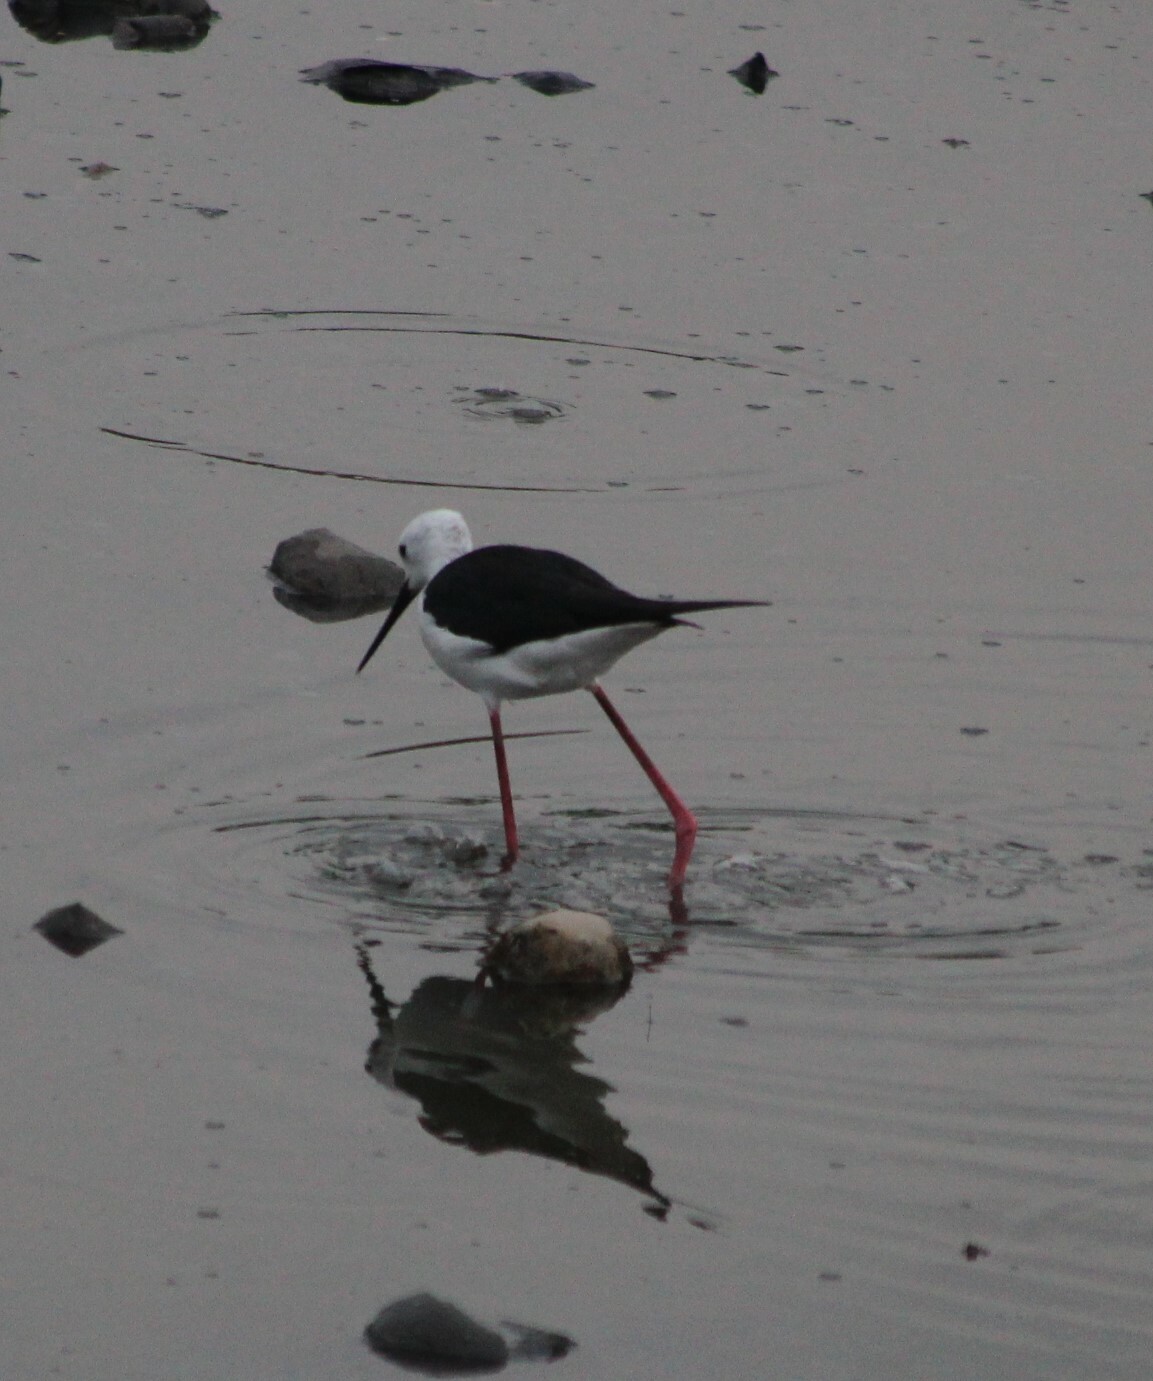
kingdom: Animalia
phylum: Chordata
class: Aves
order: Charadriiformes
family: Recurvirostridae
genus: Himantopus
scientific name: Himantopus himantopus
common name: Black-winged stilt
